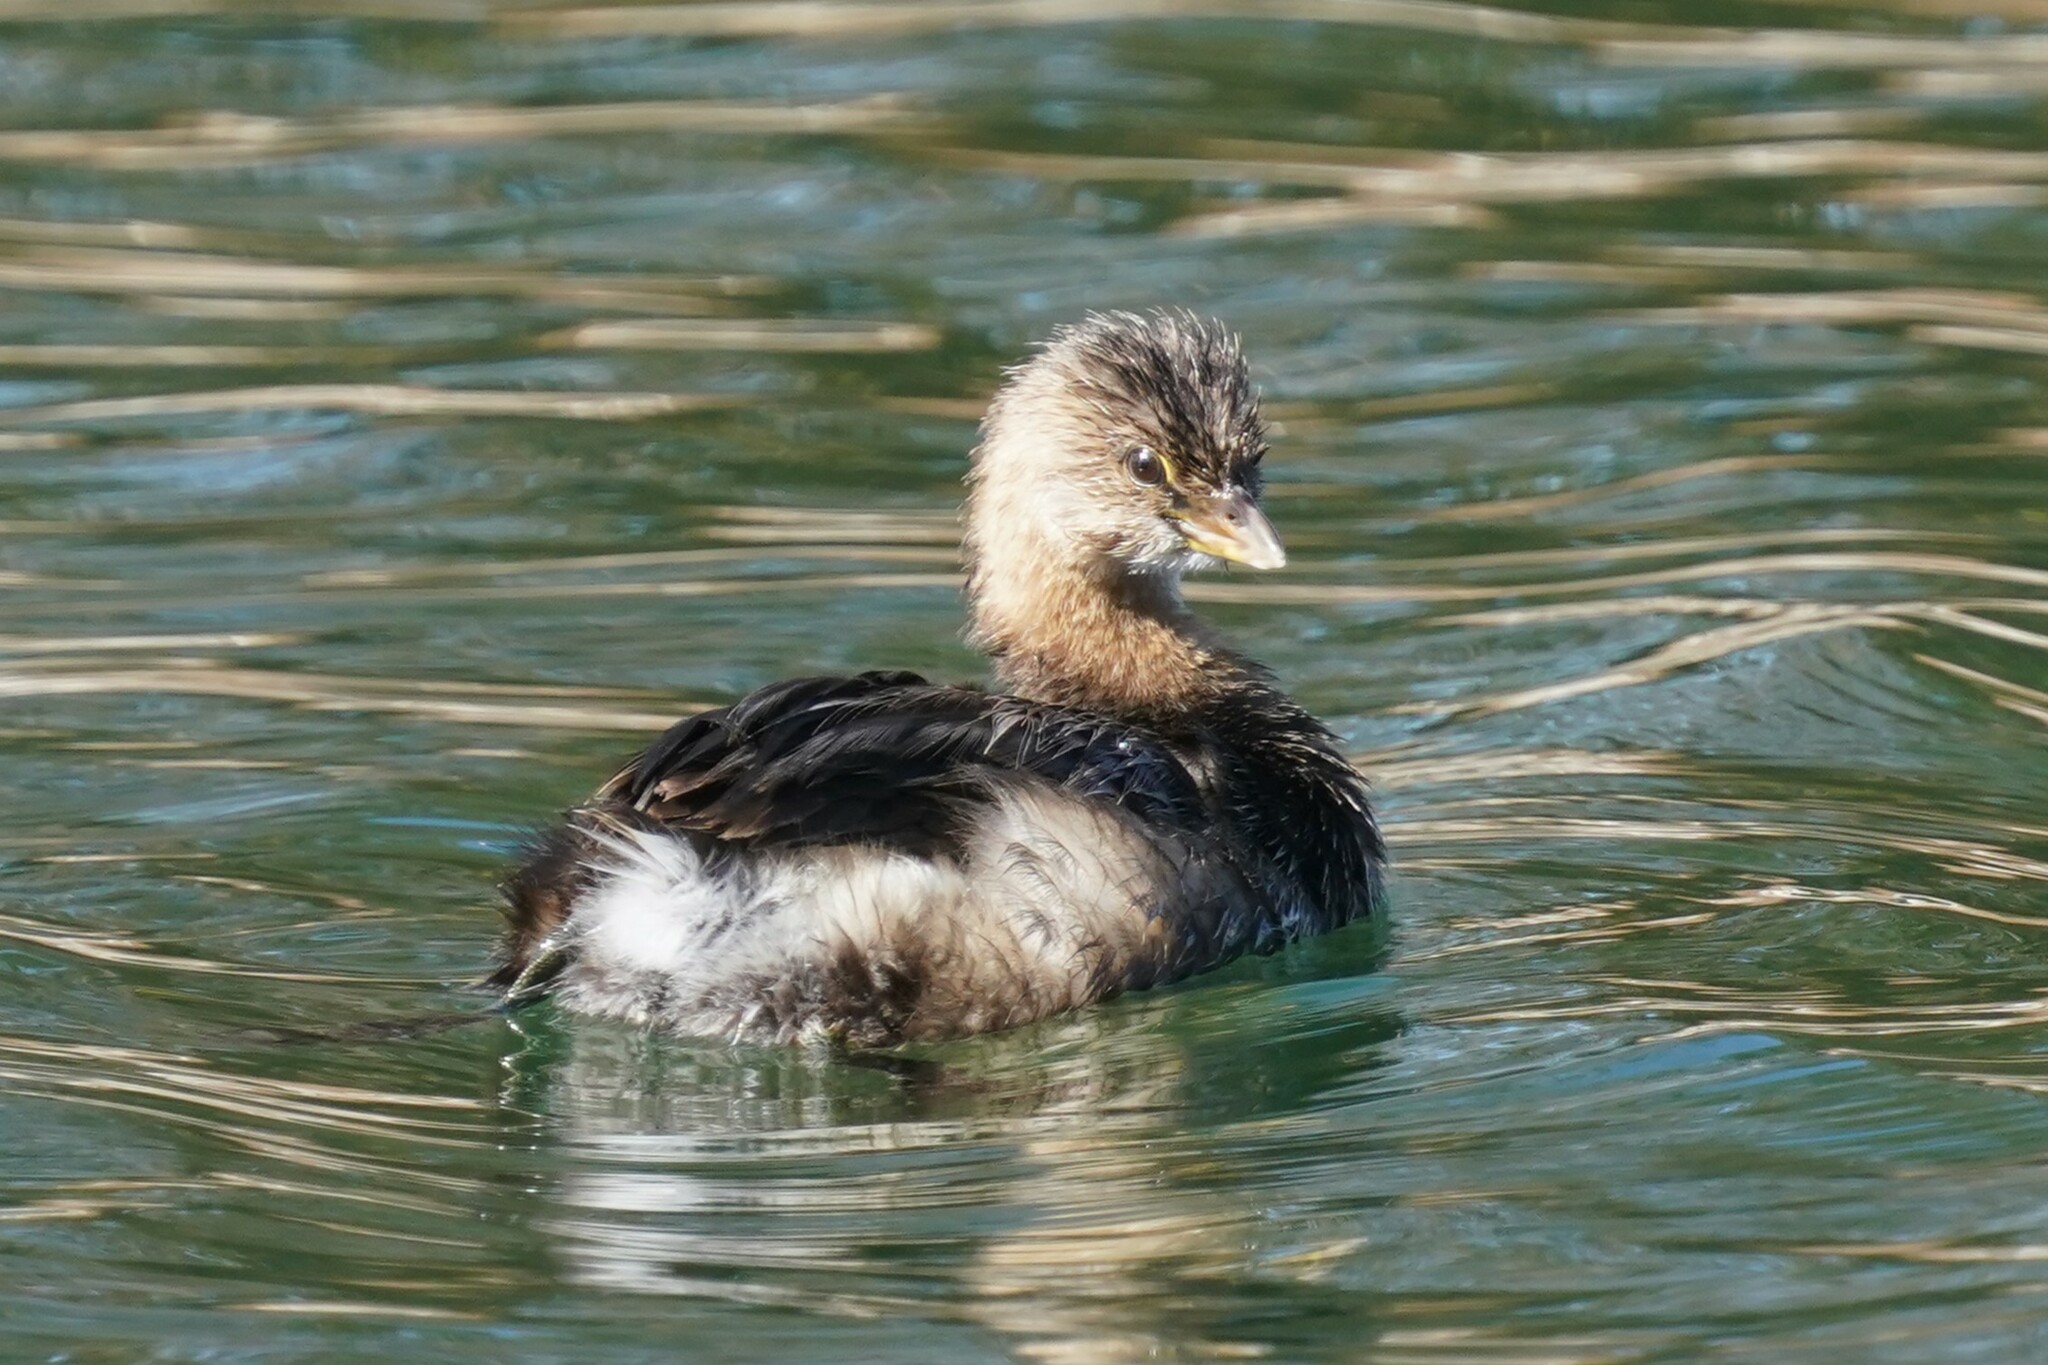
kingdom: Animalia
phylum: Chordata
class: Aves
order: Podicipediformes
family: Podicipedidae
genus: Podilymbus
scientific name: Podilymbus podiceps
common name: Pied-billed grebe
